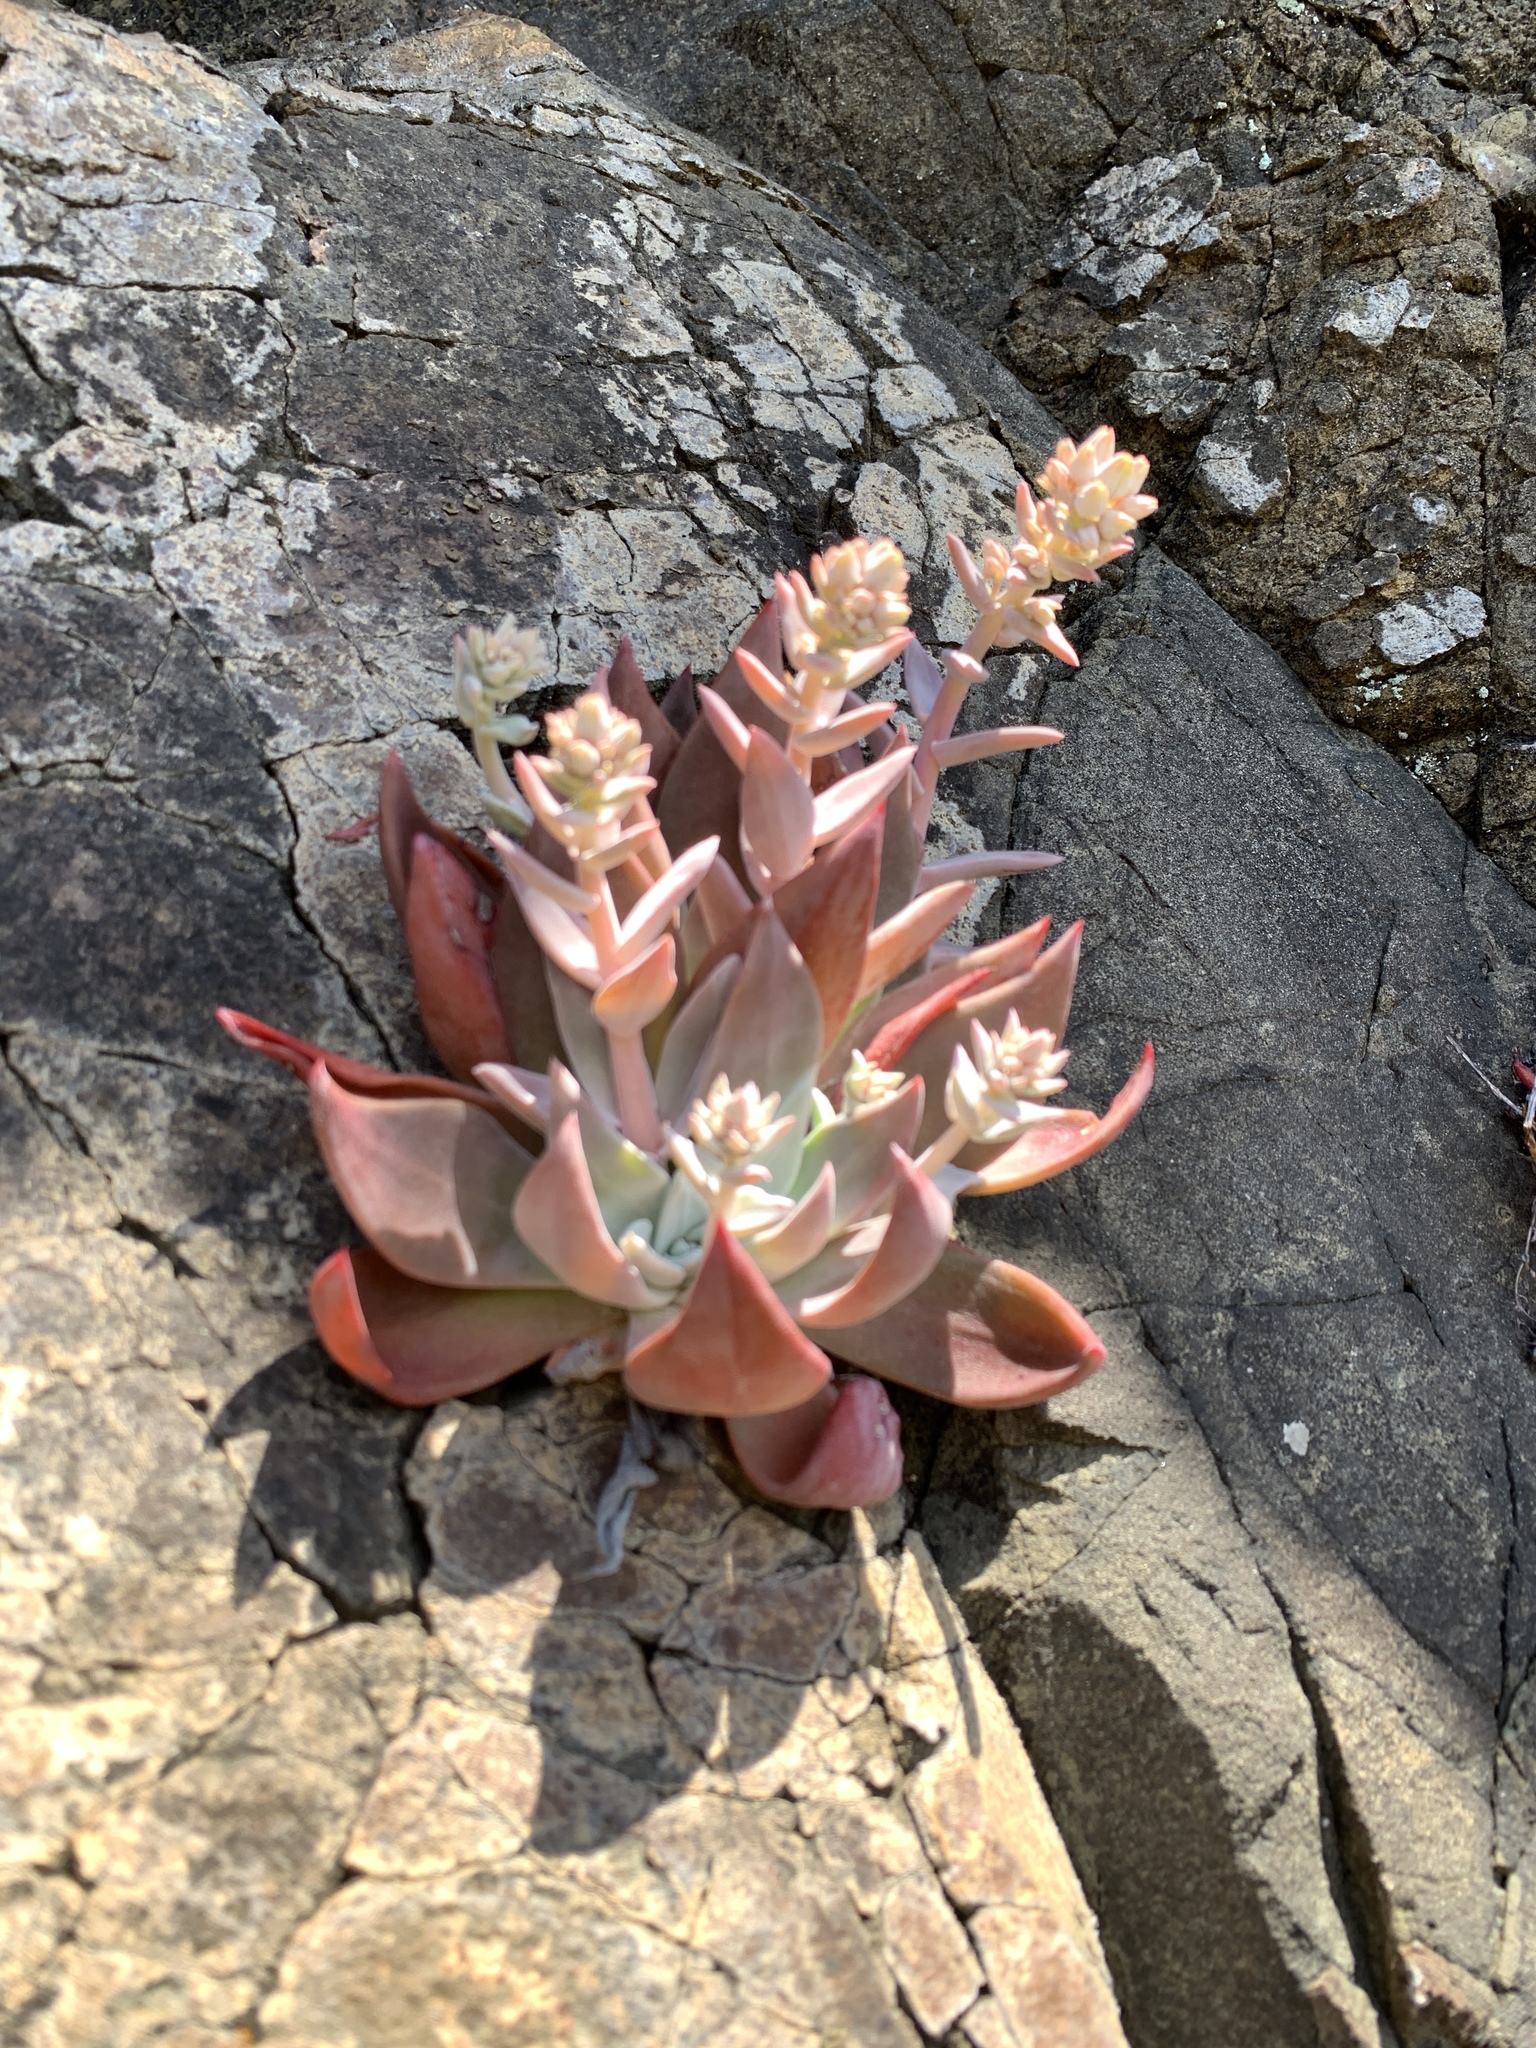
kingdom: Plantae
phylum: Tracheophyta
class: Magnoliopsida
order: Saxifragales
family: Crassulaceae
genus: Dudleya
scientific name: Dudleya cymosa
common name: Canyon dudleya
